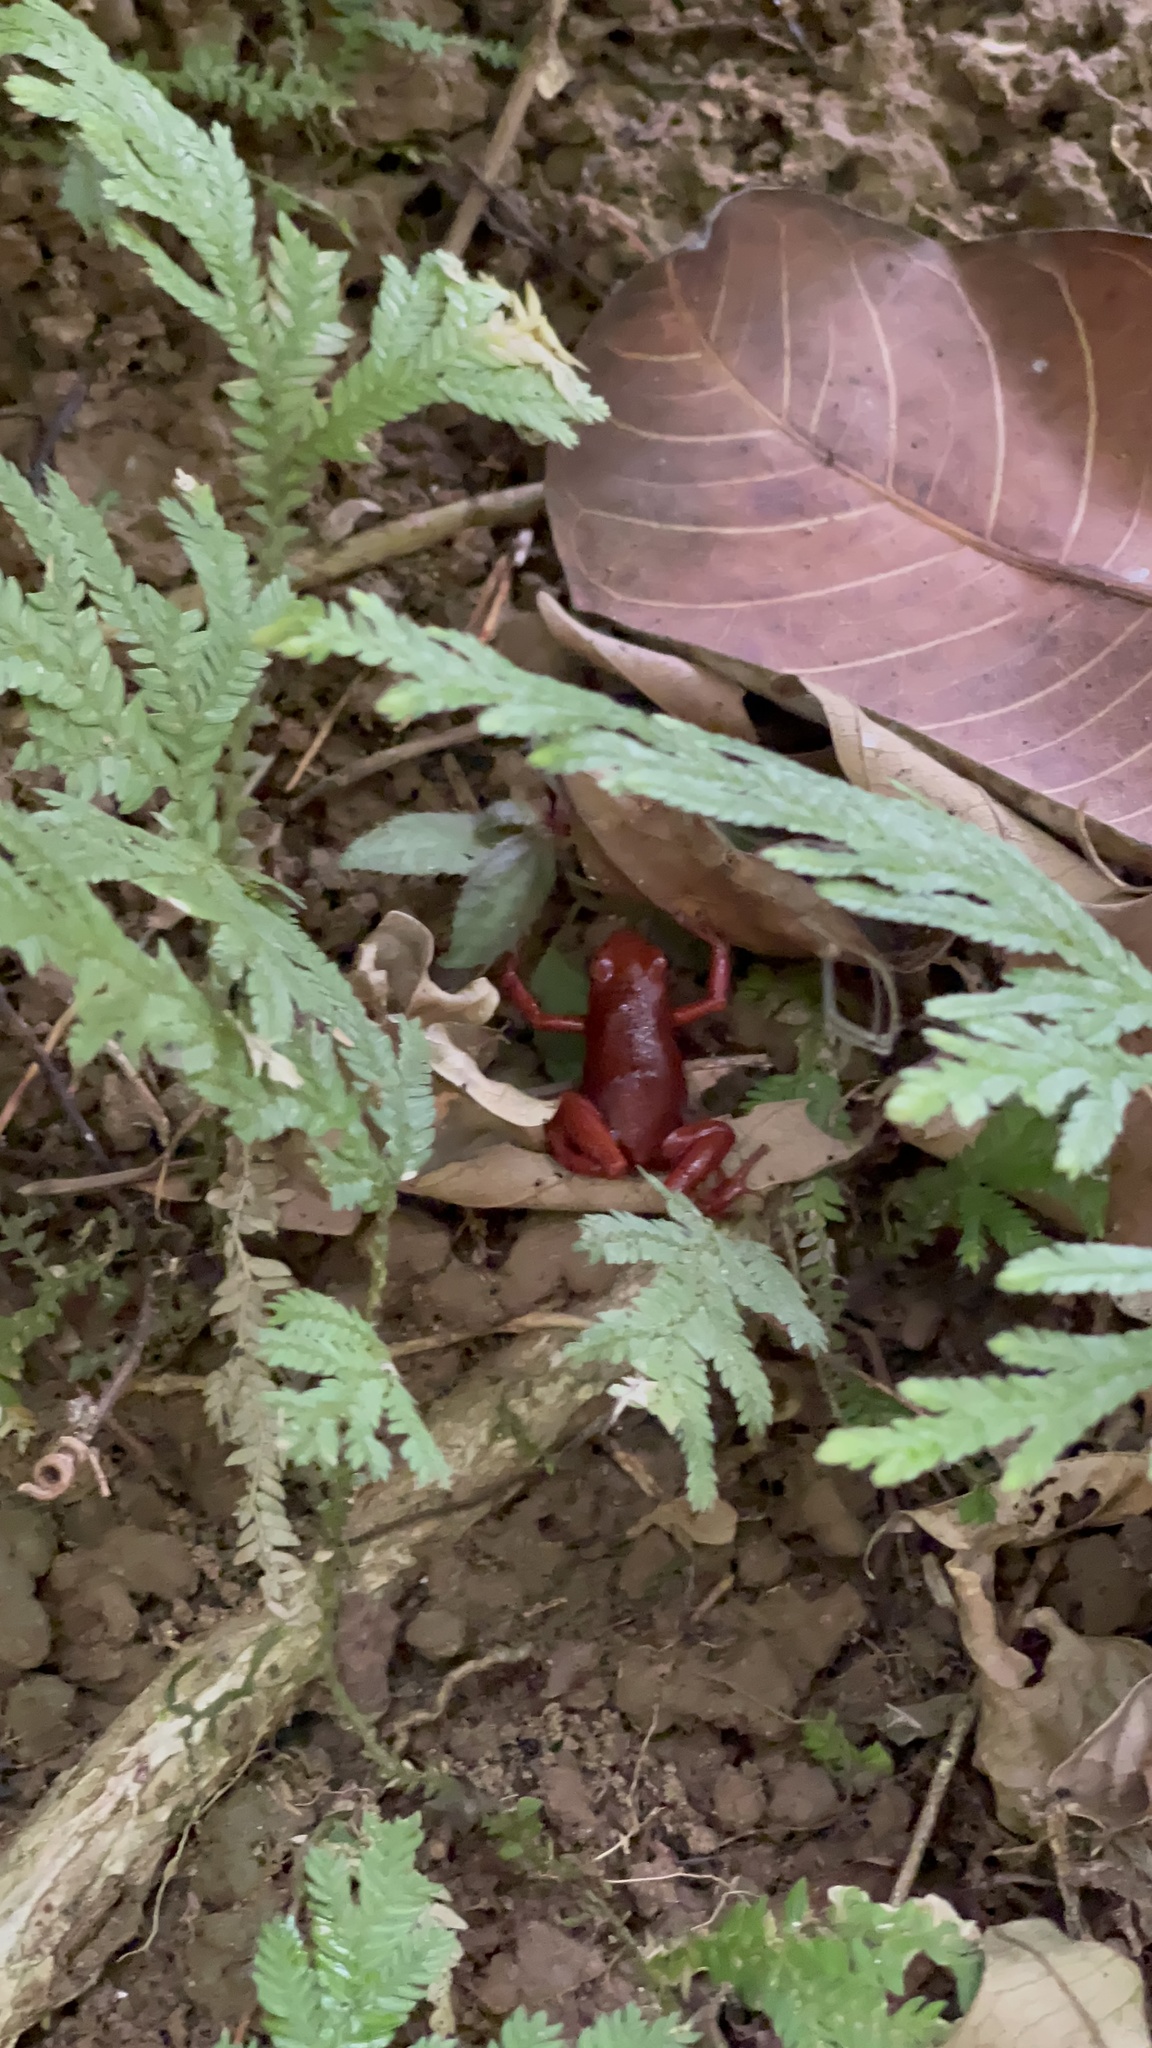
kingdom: Animalia
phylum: Chordata
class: Amphibia
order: Anura
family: Dendrobatidae
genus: Oophaga
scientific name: Oophaga pumilio
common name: Flaming poison frog
